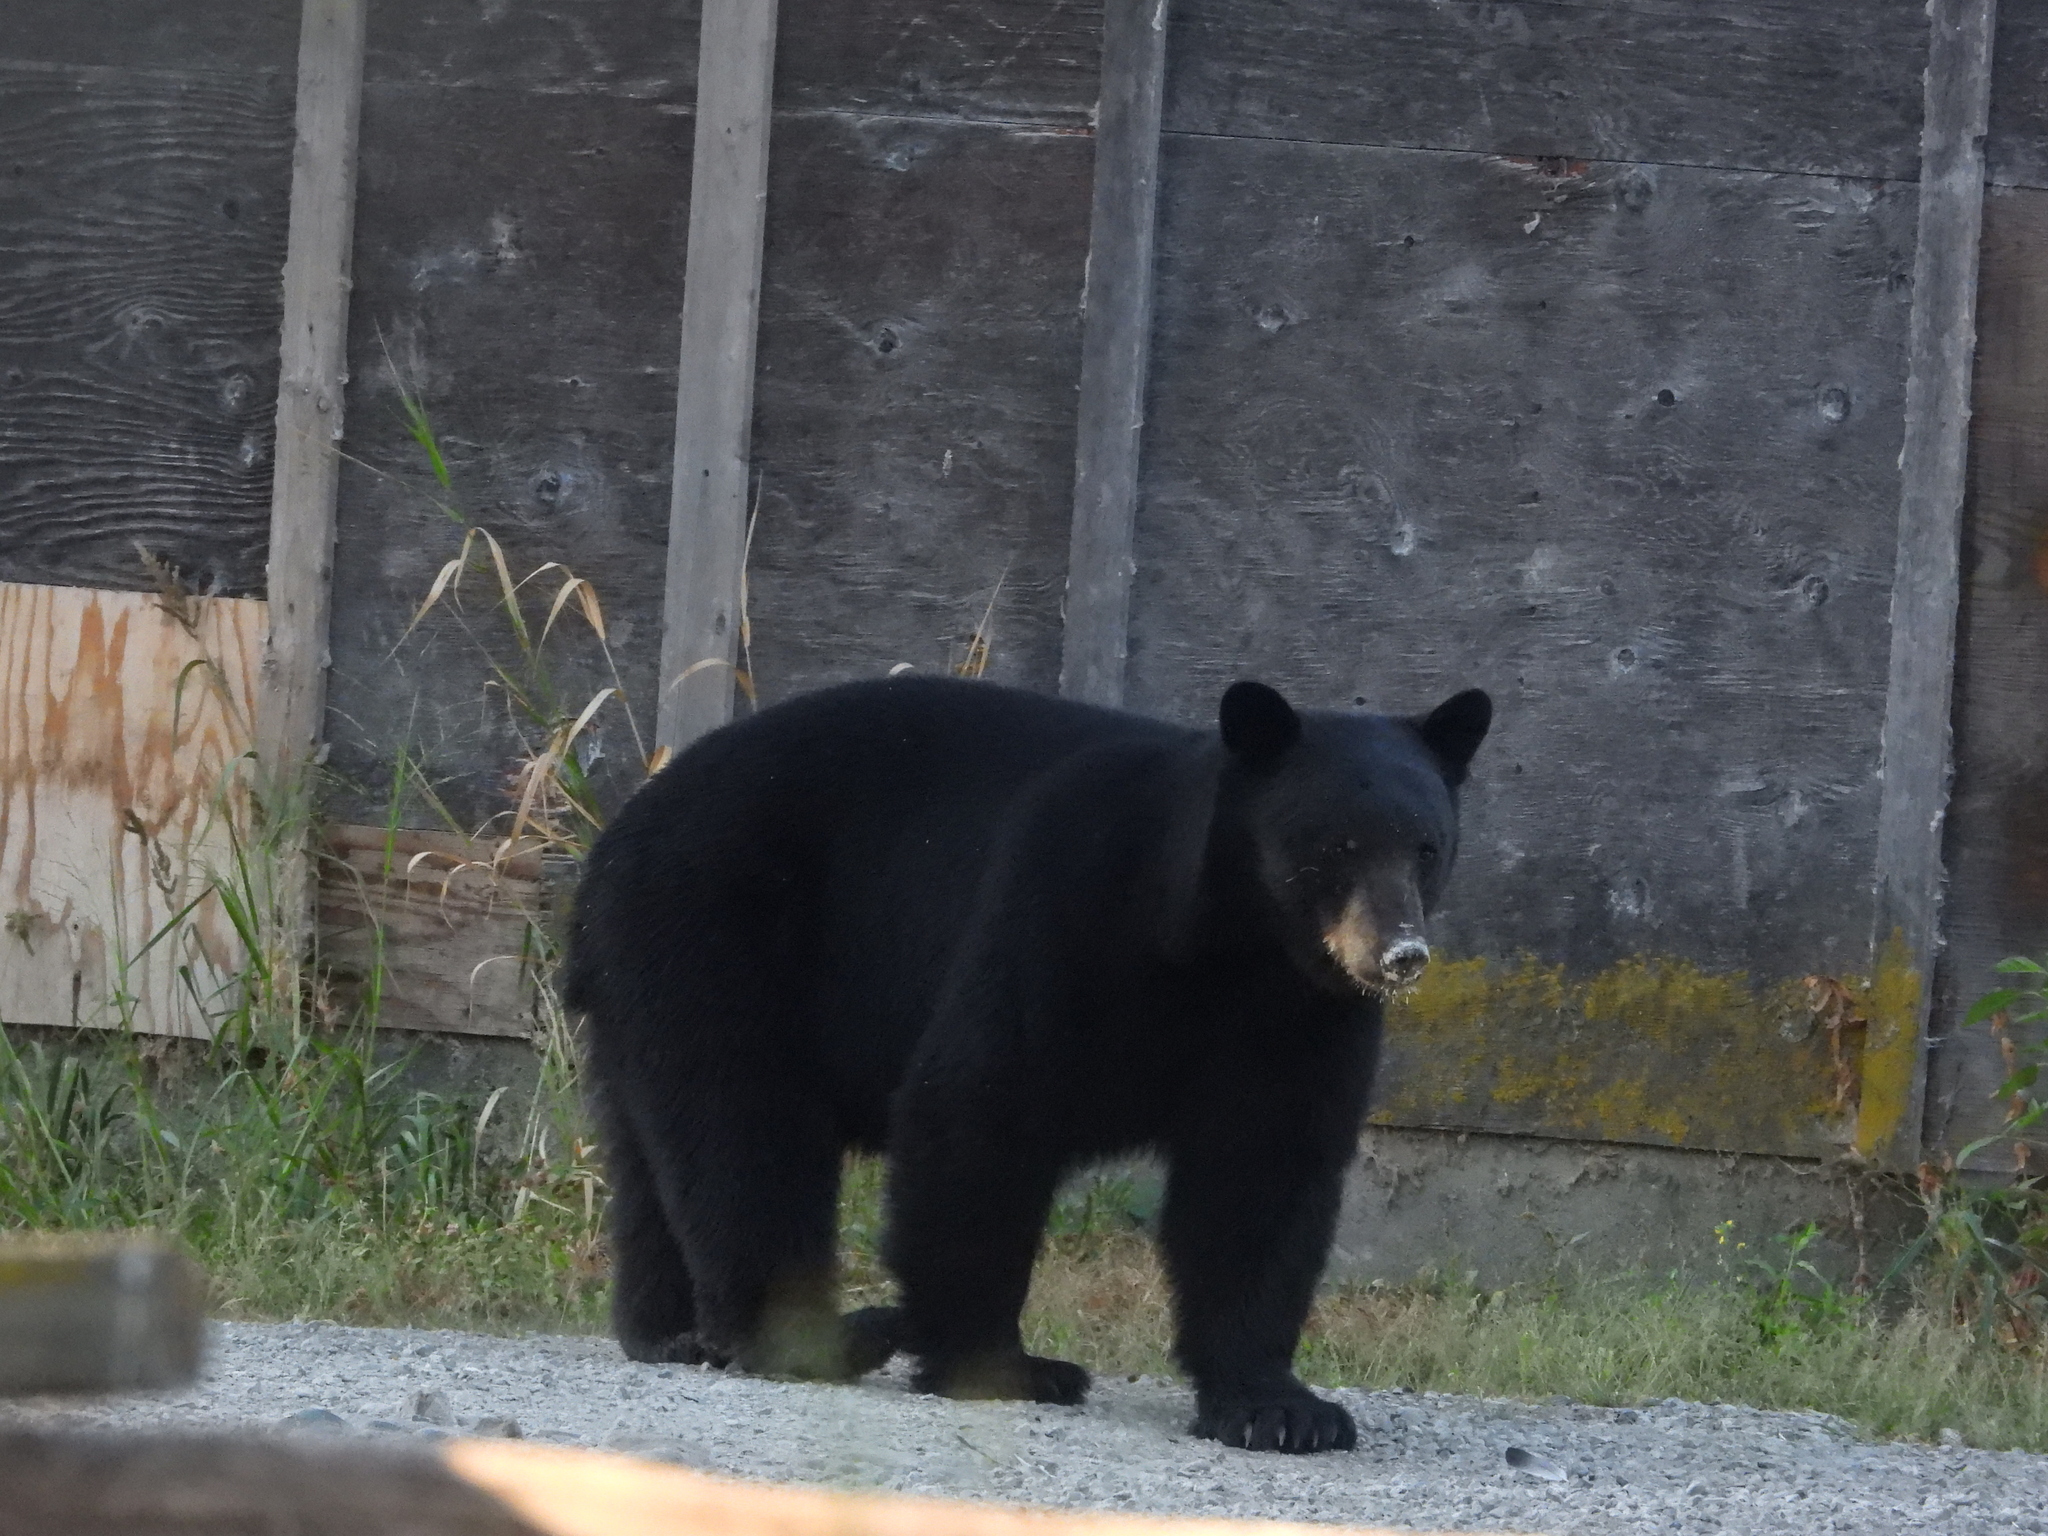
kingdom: Animalia
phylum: Chordata
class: Mammalia
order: Carnivora
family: Ursidae
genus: Ursus
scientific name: Ursus americanus
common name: American black bear
